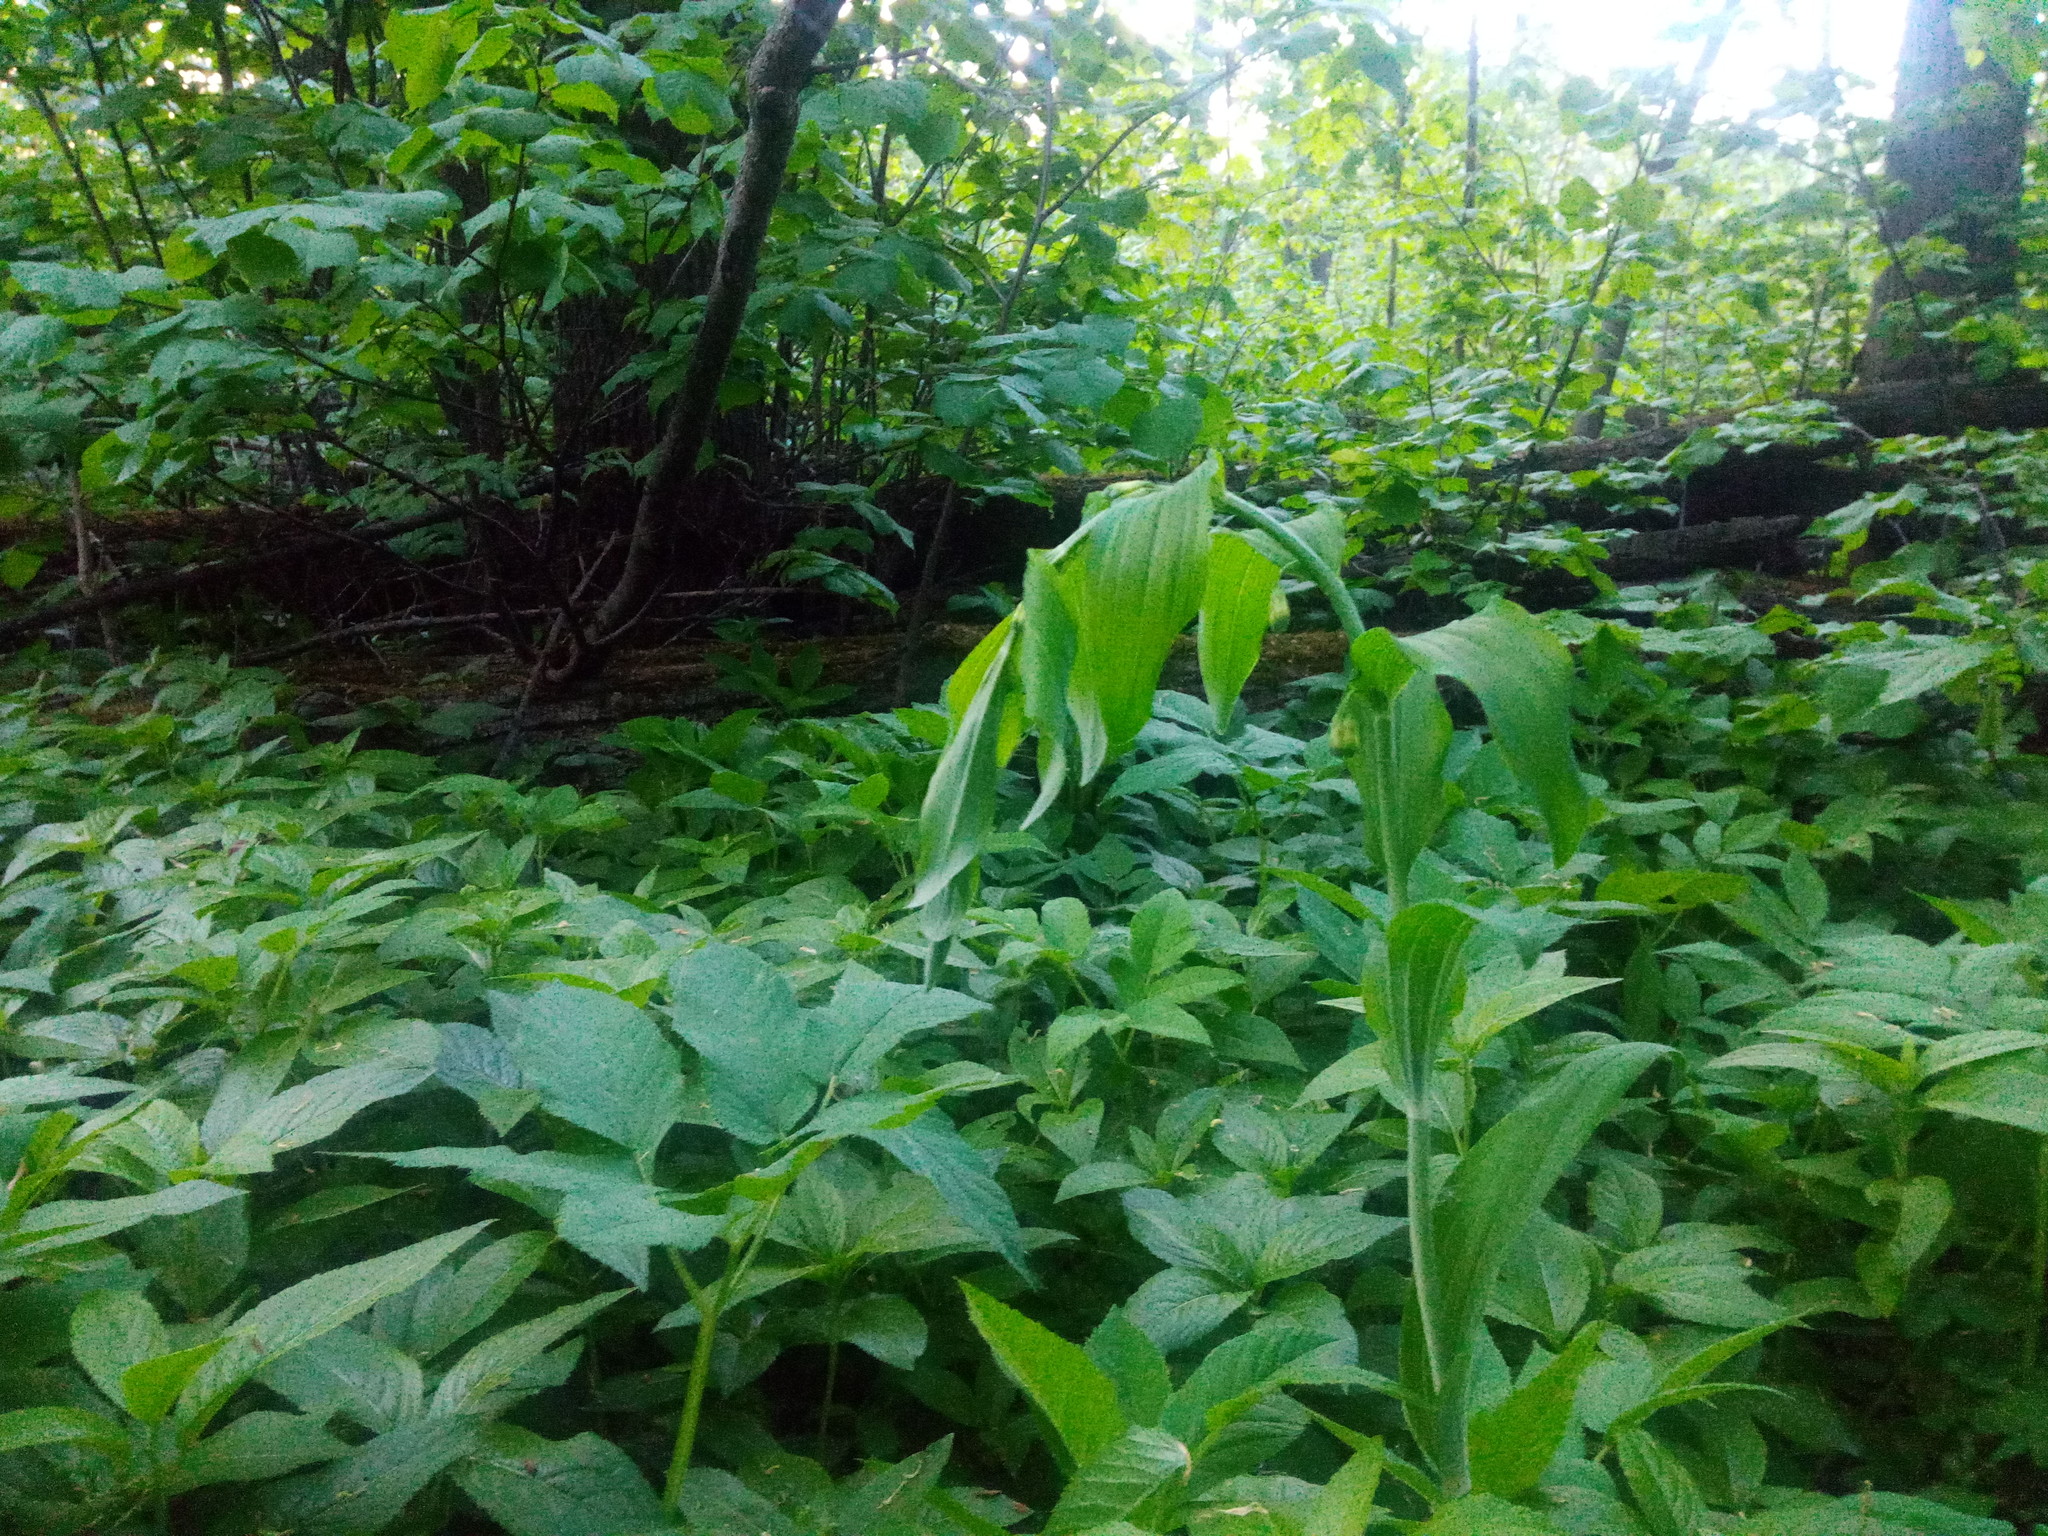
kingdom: Plantae
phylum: Tracheophyta
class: Liliopsida
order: Asparagales
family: Asparagaceae
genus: Polygonatum
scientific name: Polygonatum multiflorum
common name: Solomon's-seal
